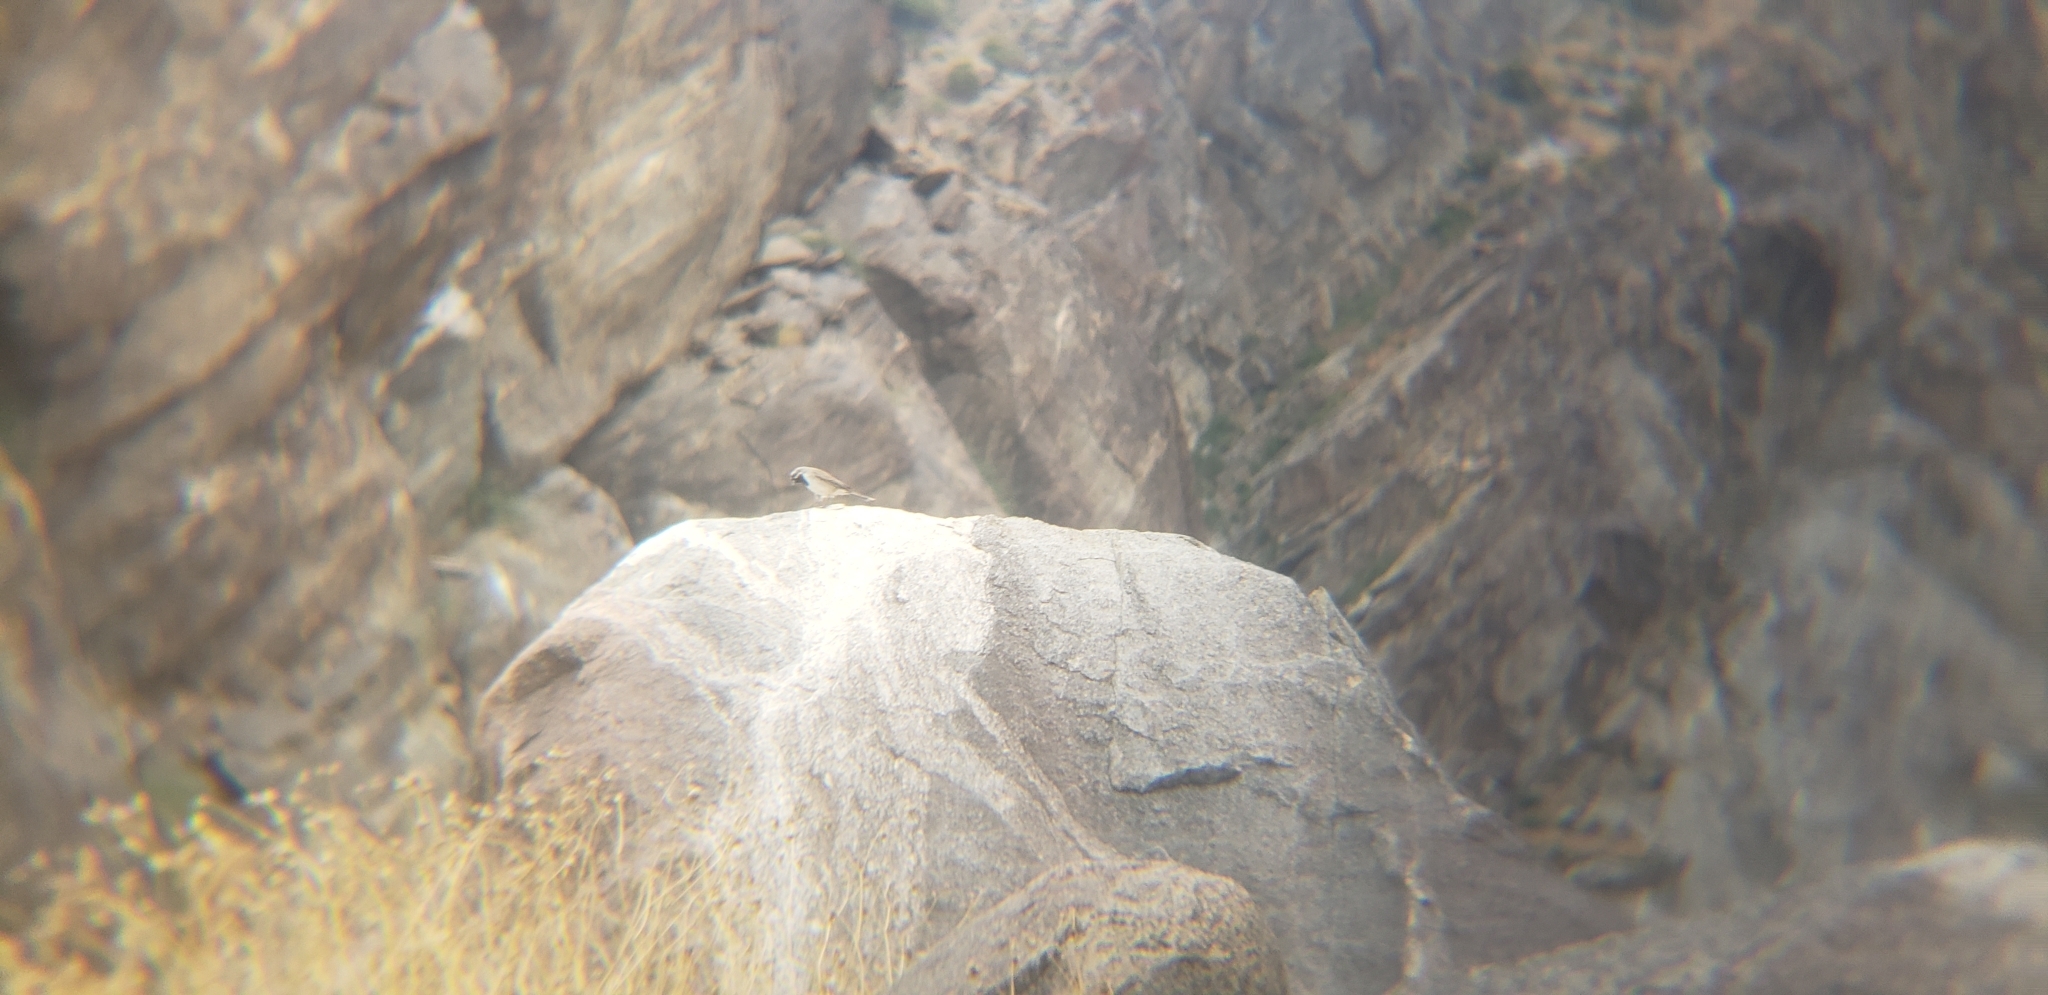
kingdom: Animalia
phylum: Chordata
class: Aves
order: Passeriformes
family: Passerellidae
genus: Amphispiza
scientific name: Amphispiza bilineata
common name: Black-throated sparrow
